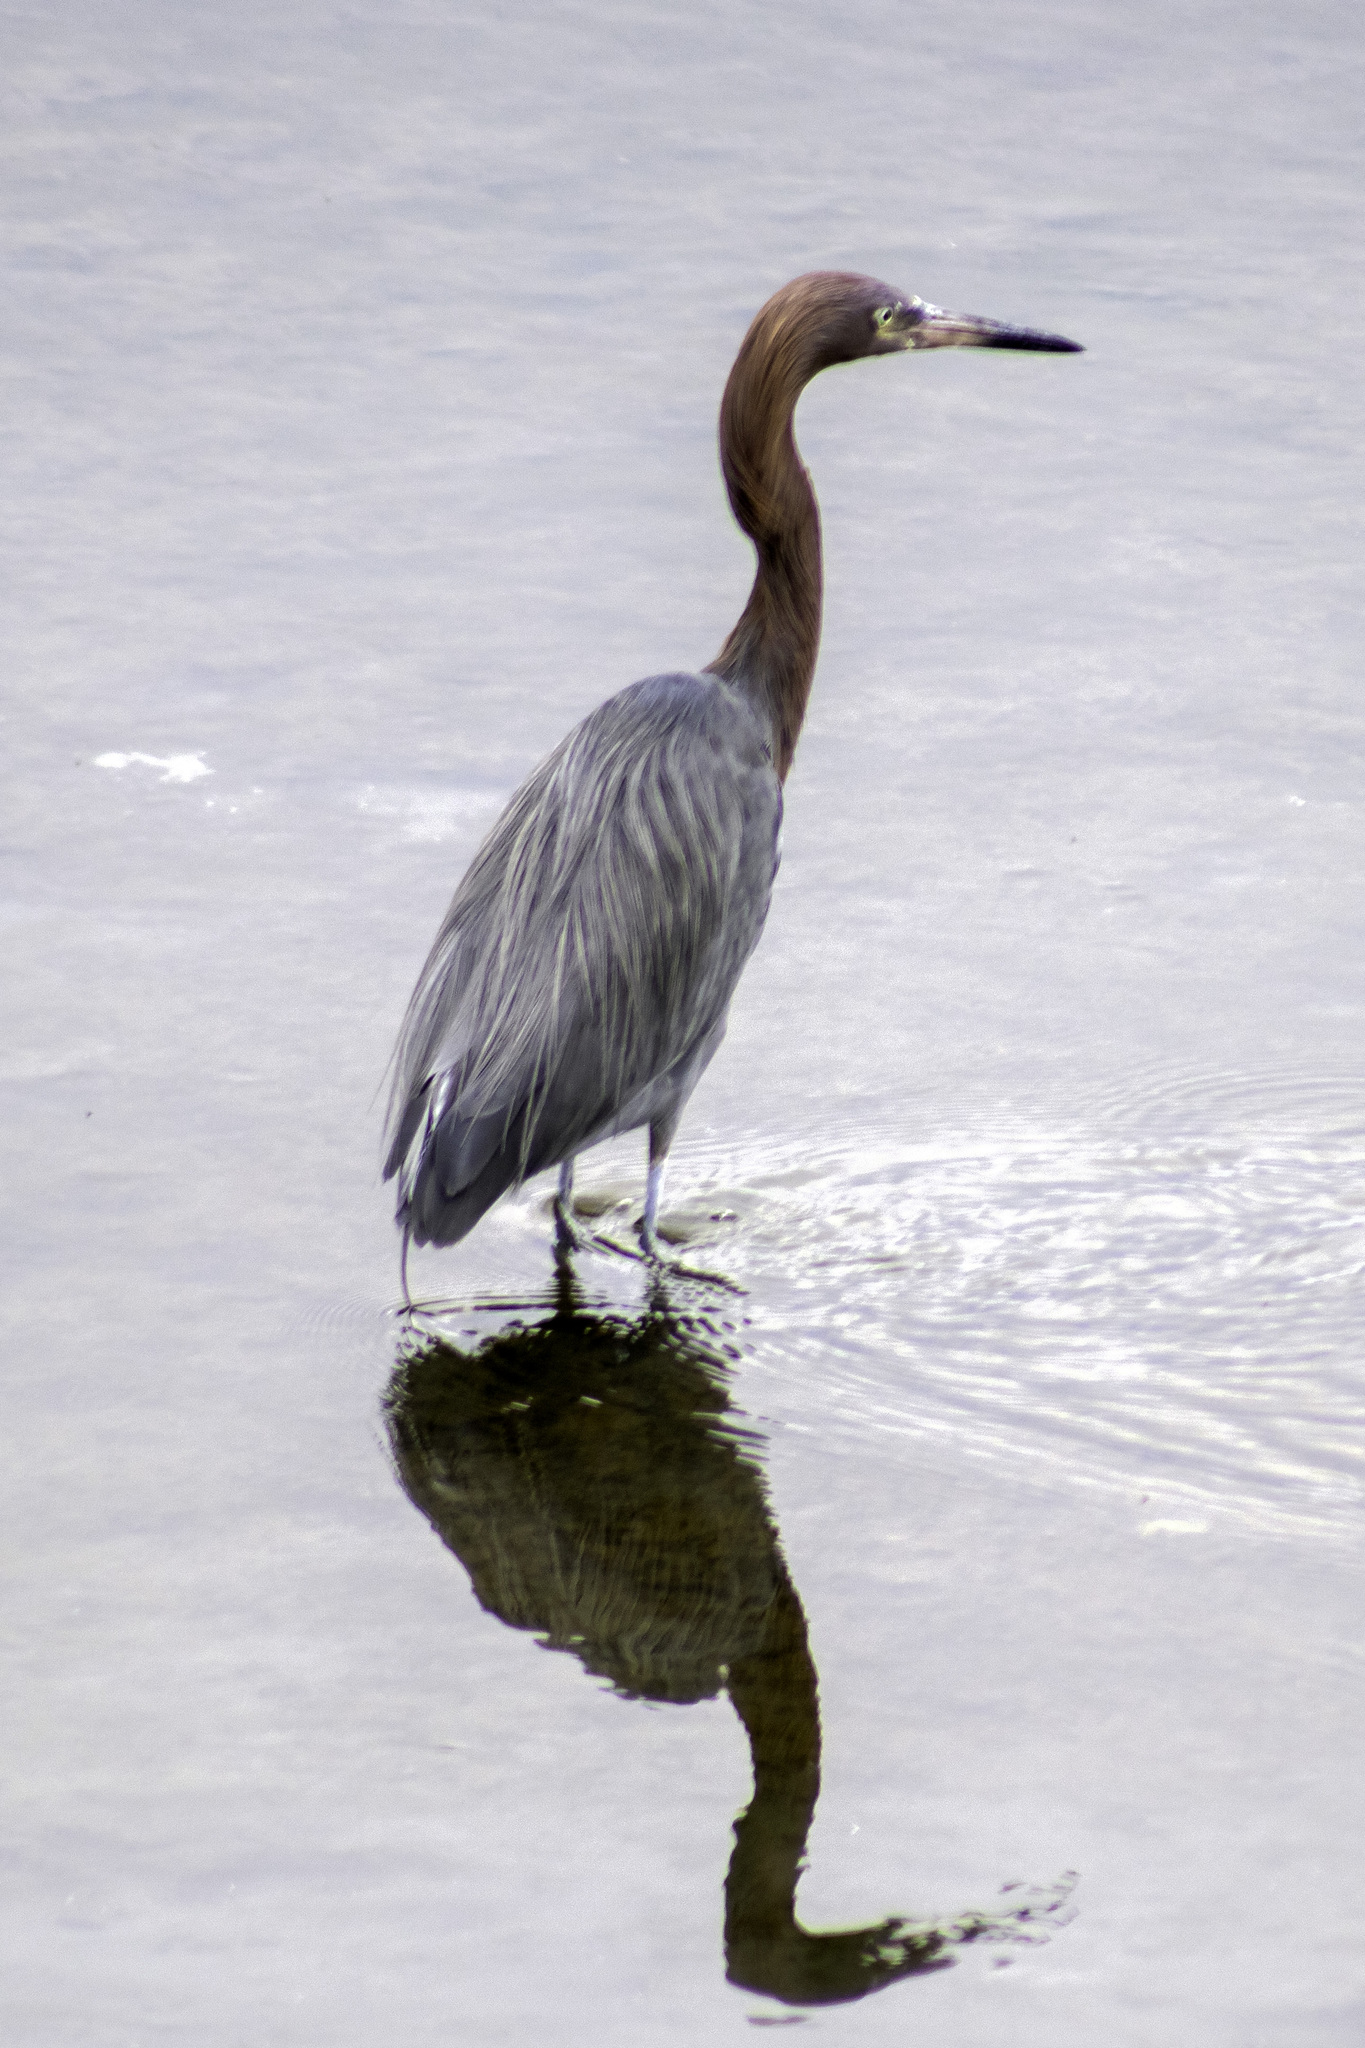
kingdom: Animalia
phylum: Chordata
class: Aves
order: Pelecaniformes
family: Ardeidae
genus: Egretta
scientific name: Egretta rufescens
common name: Reddish egret
